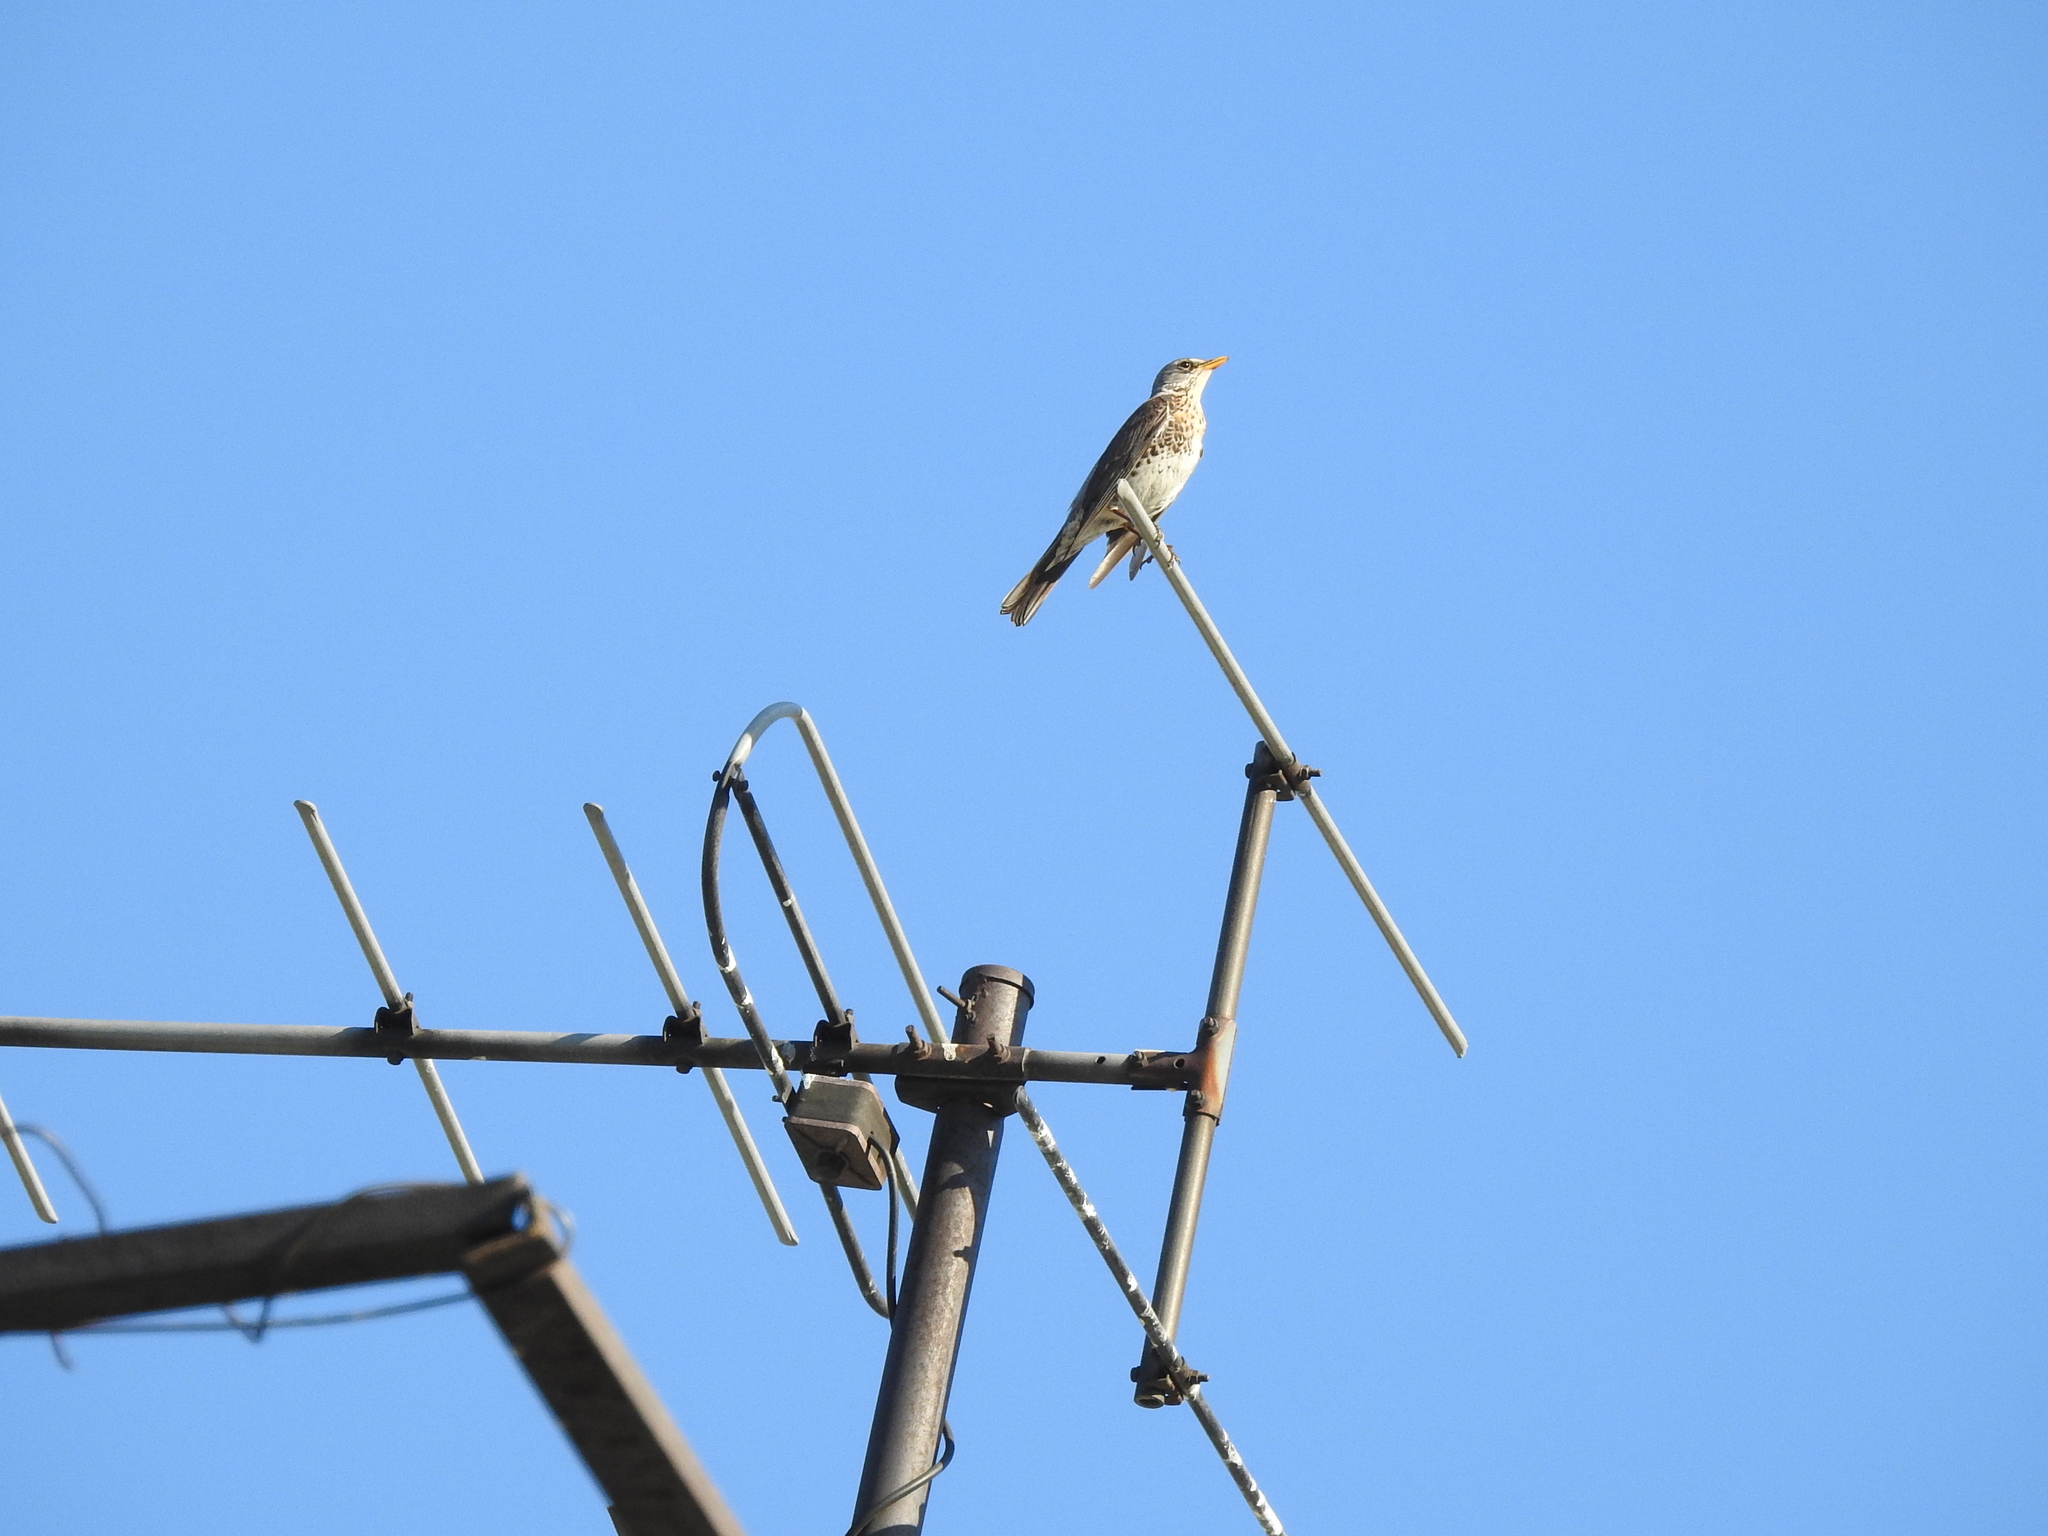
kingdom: Animalia
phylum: Chordata
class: Aves
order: Passeriformes
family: Turdidae
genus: Turdus
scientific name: Turdus pilaris
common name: Fieldfare
